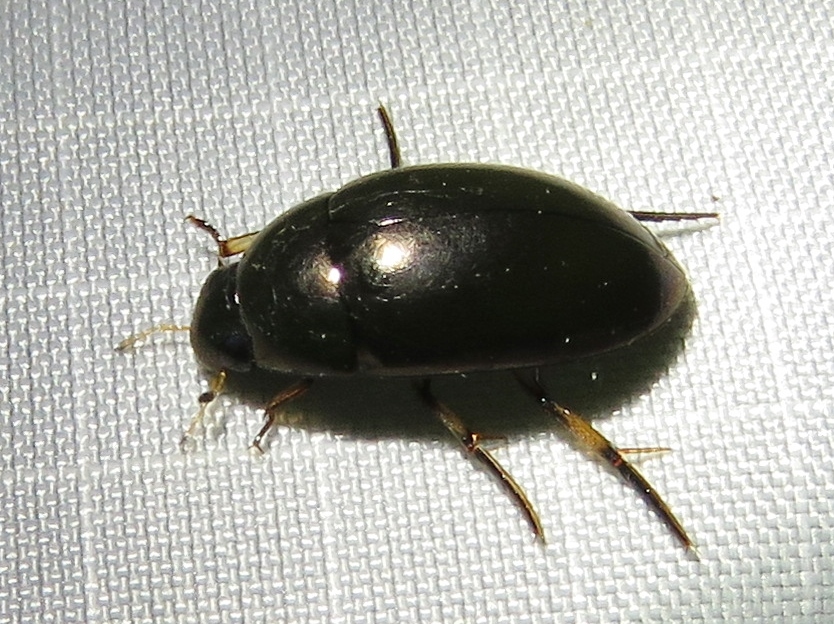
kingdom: Animalia
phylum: Arthropoda
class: Insecta
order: Coleoptera
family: Hydrophilidae
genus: Tropisternus
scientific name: Tropisternus blatchleyi
